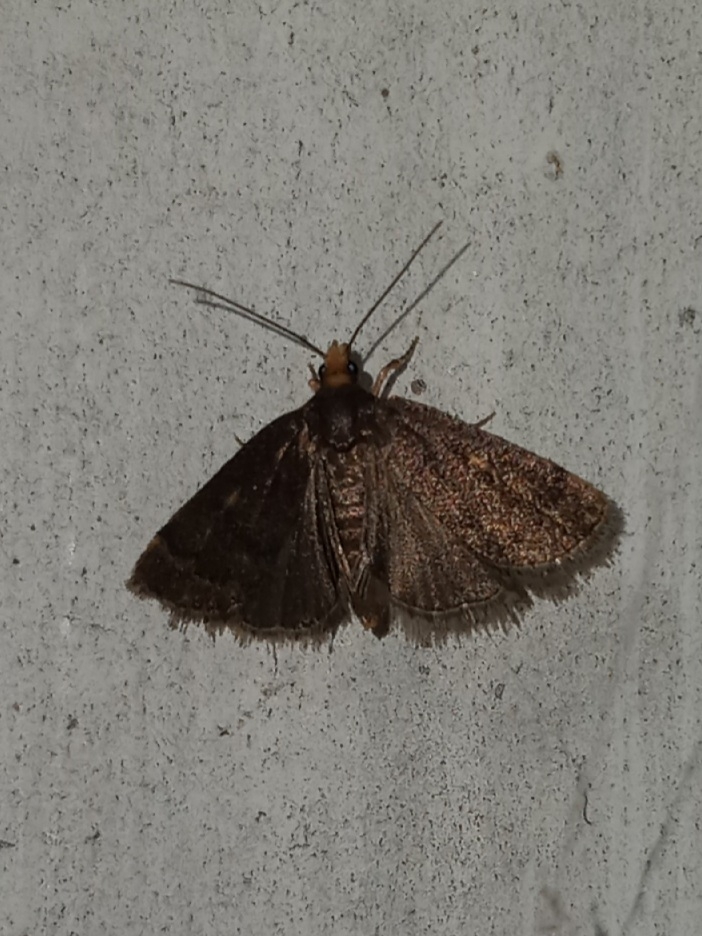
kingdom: Animalia
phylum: Arthropoda
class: Insecta
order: Lepidoptera
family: Crambidae
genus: Pyrausta
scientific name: Pyrausta merrickalis
